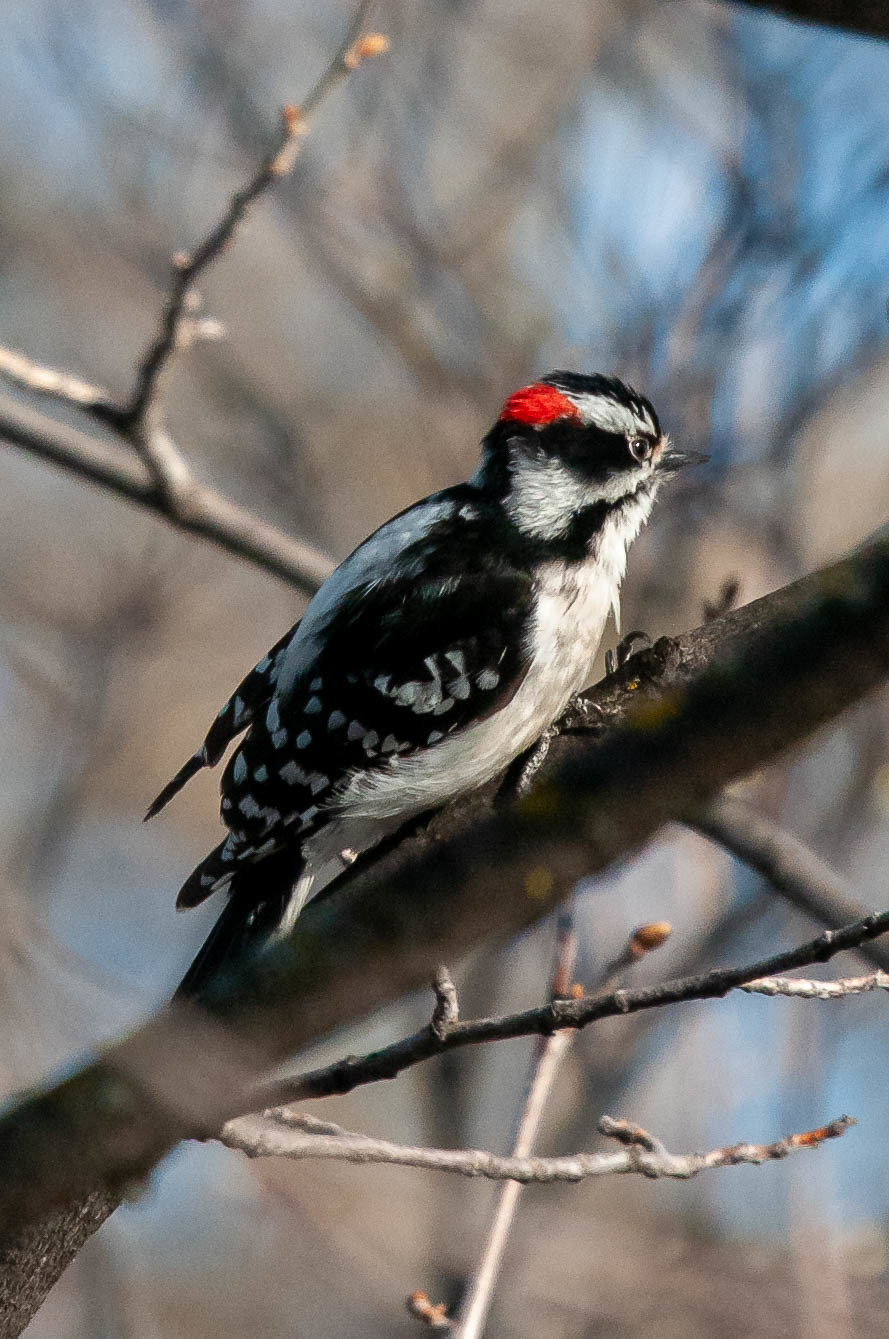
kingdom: Animalia
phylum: Chordata
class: Aves
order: Piciformes
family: Picidae
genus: Dryobates
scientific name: Dryobates pubescens
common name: Downy woodpecker
